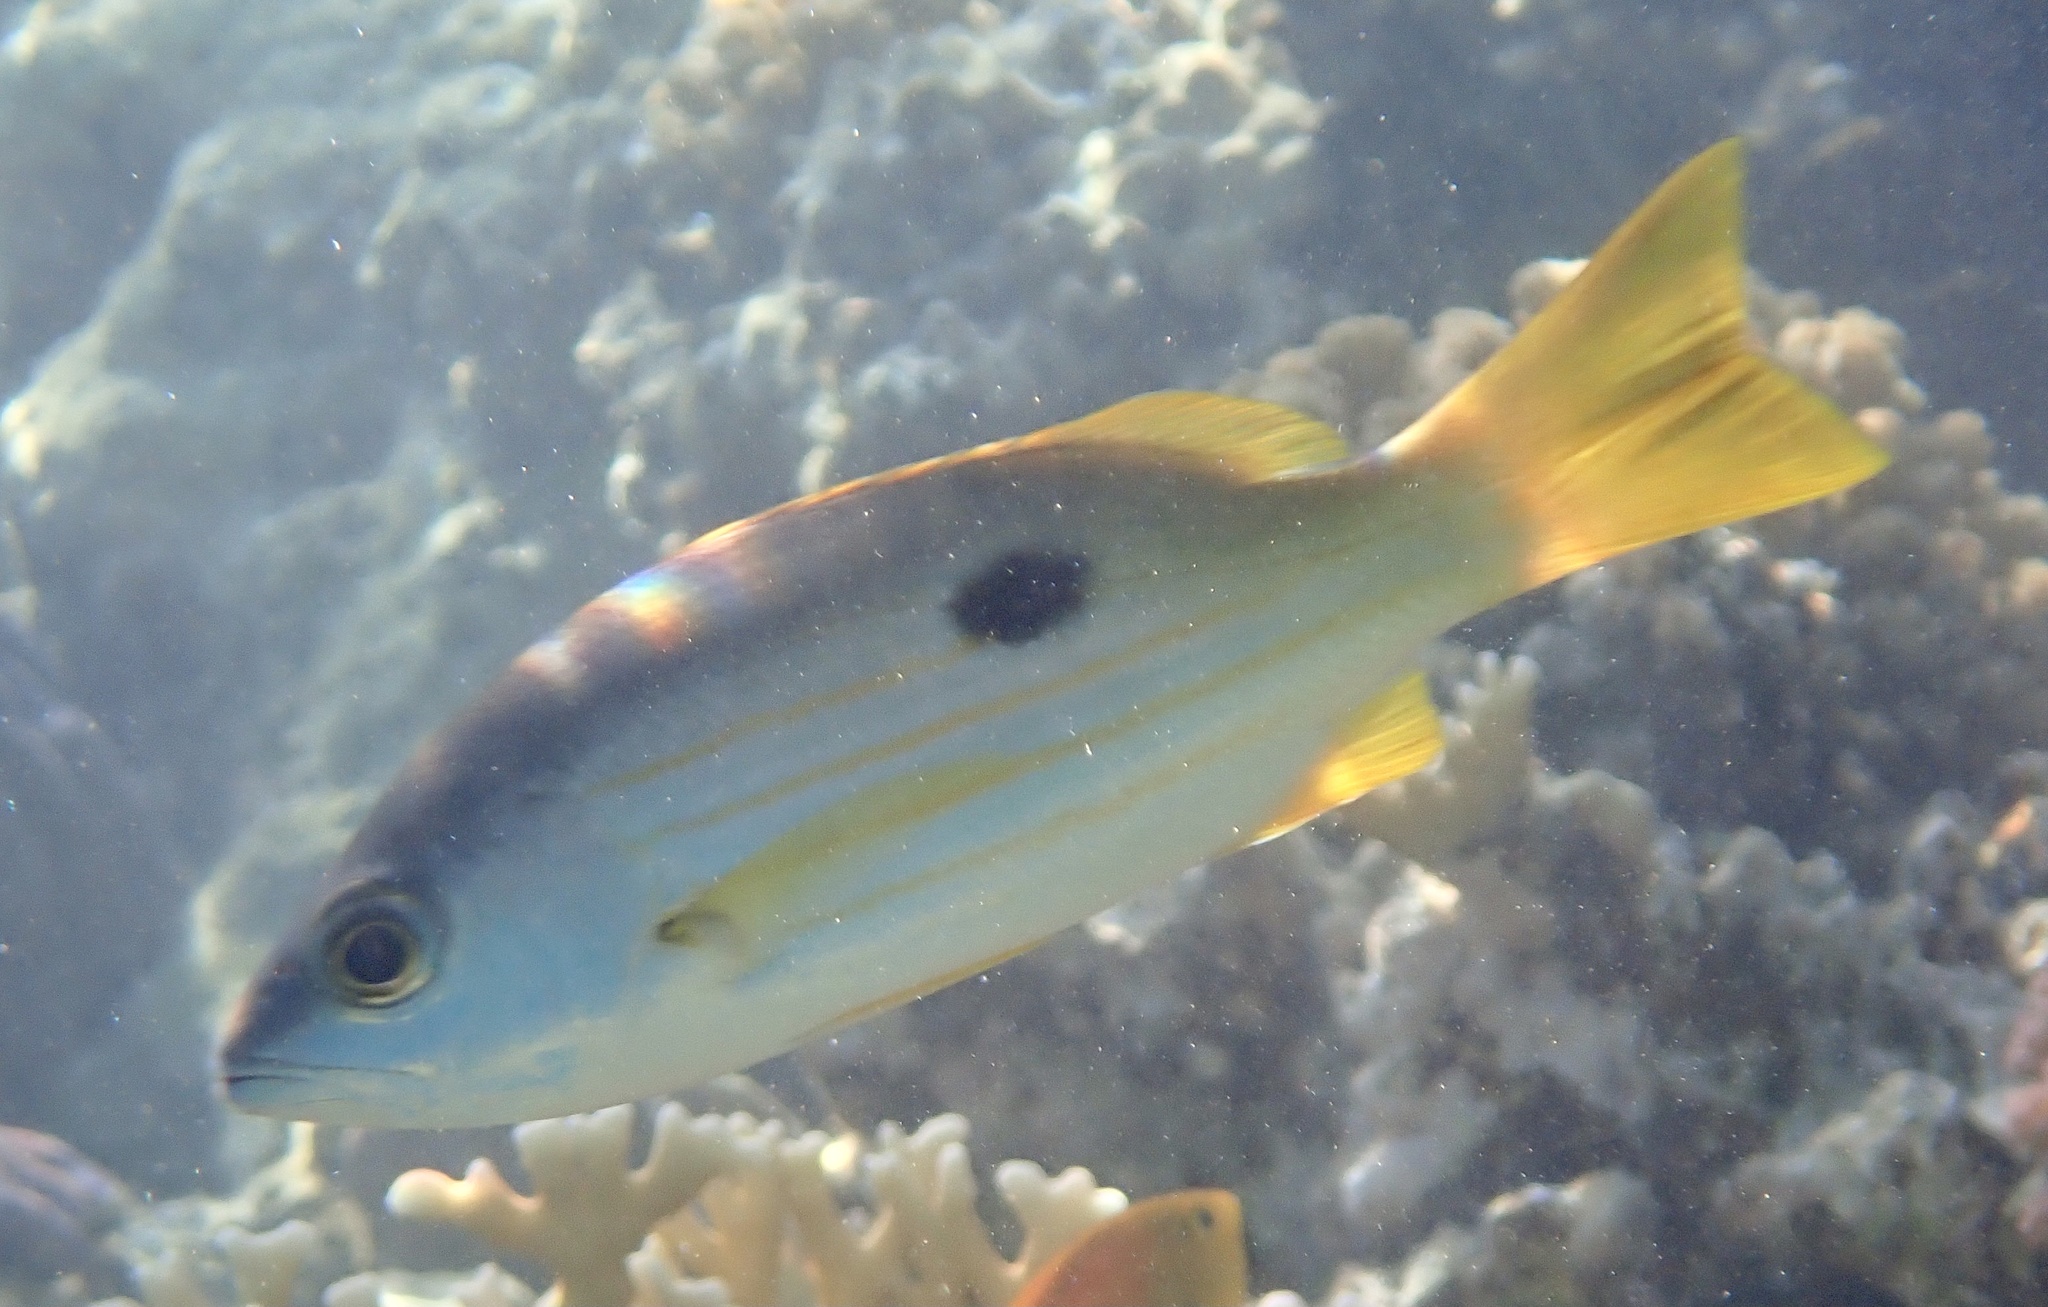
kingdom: Animalia
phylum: Chordata
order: Perciformes
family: Lutjanidae
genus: Lutjanus
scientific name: Lutjanus ehrenbergii
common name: Blackspot snapper
